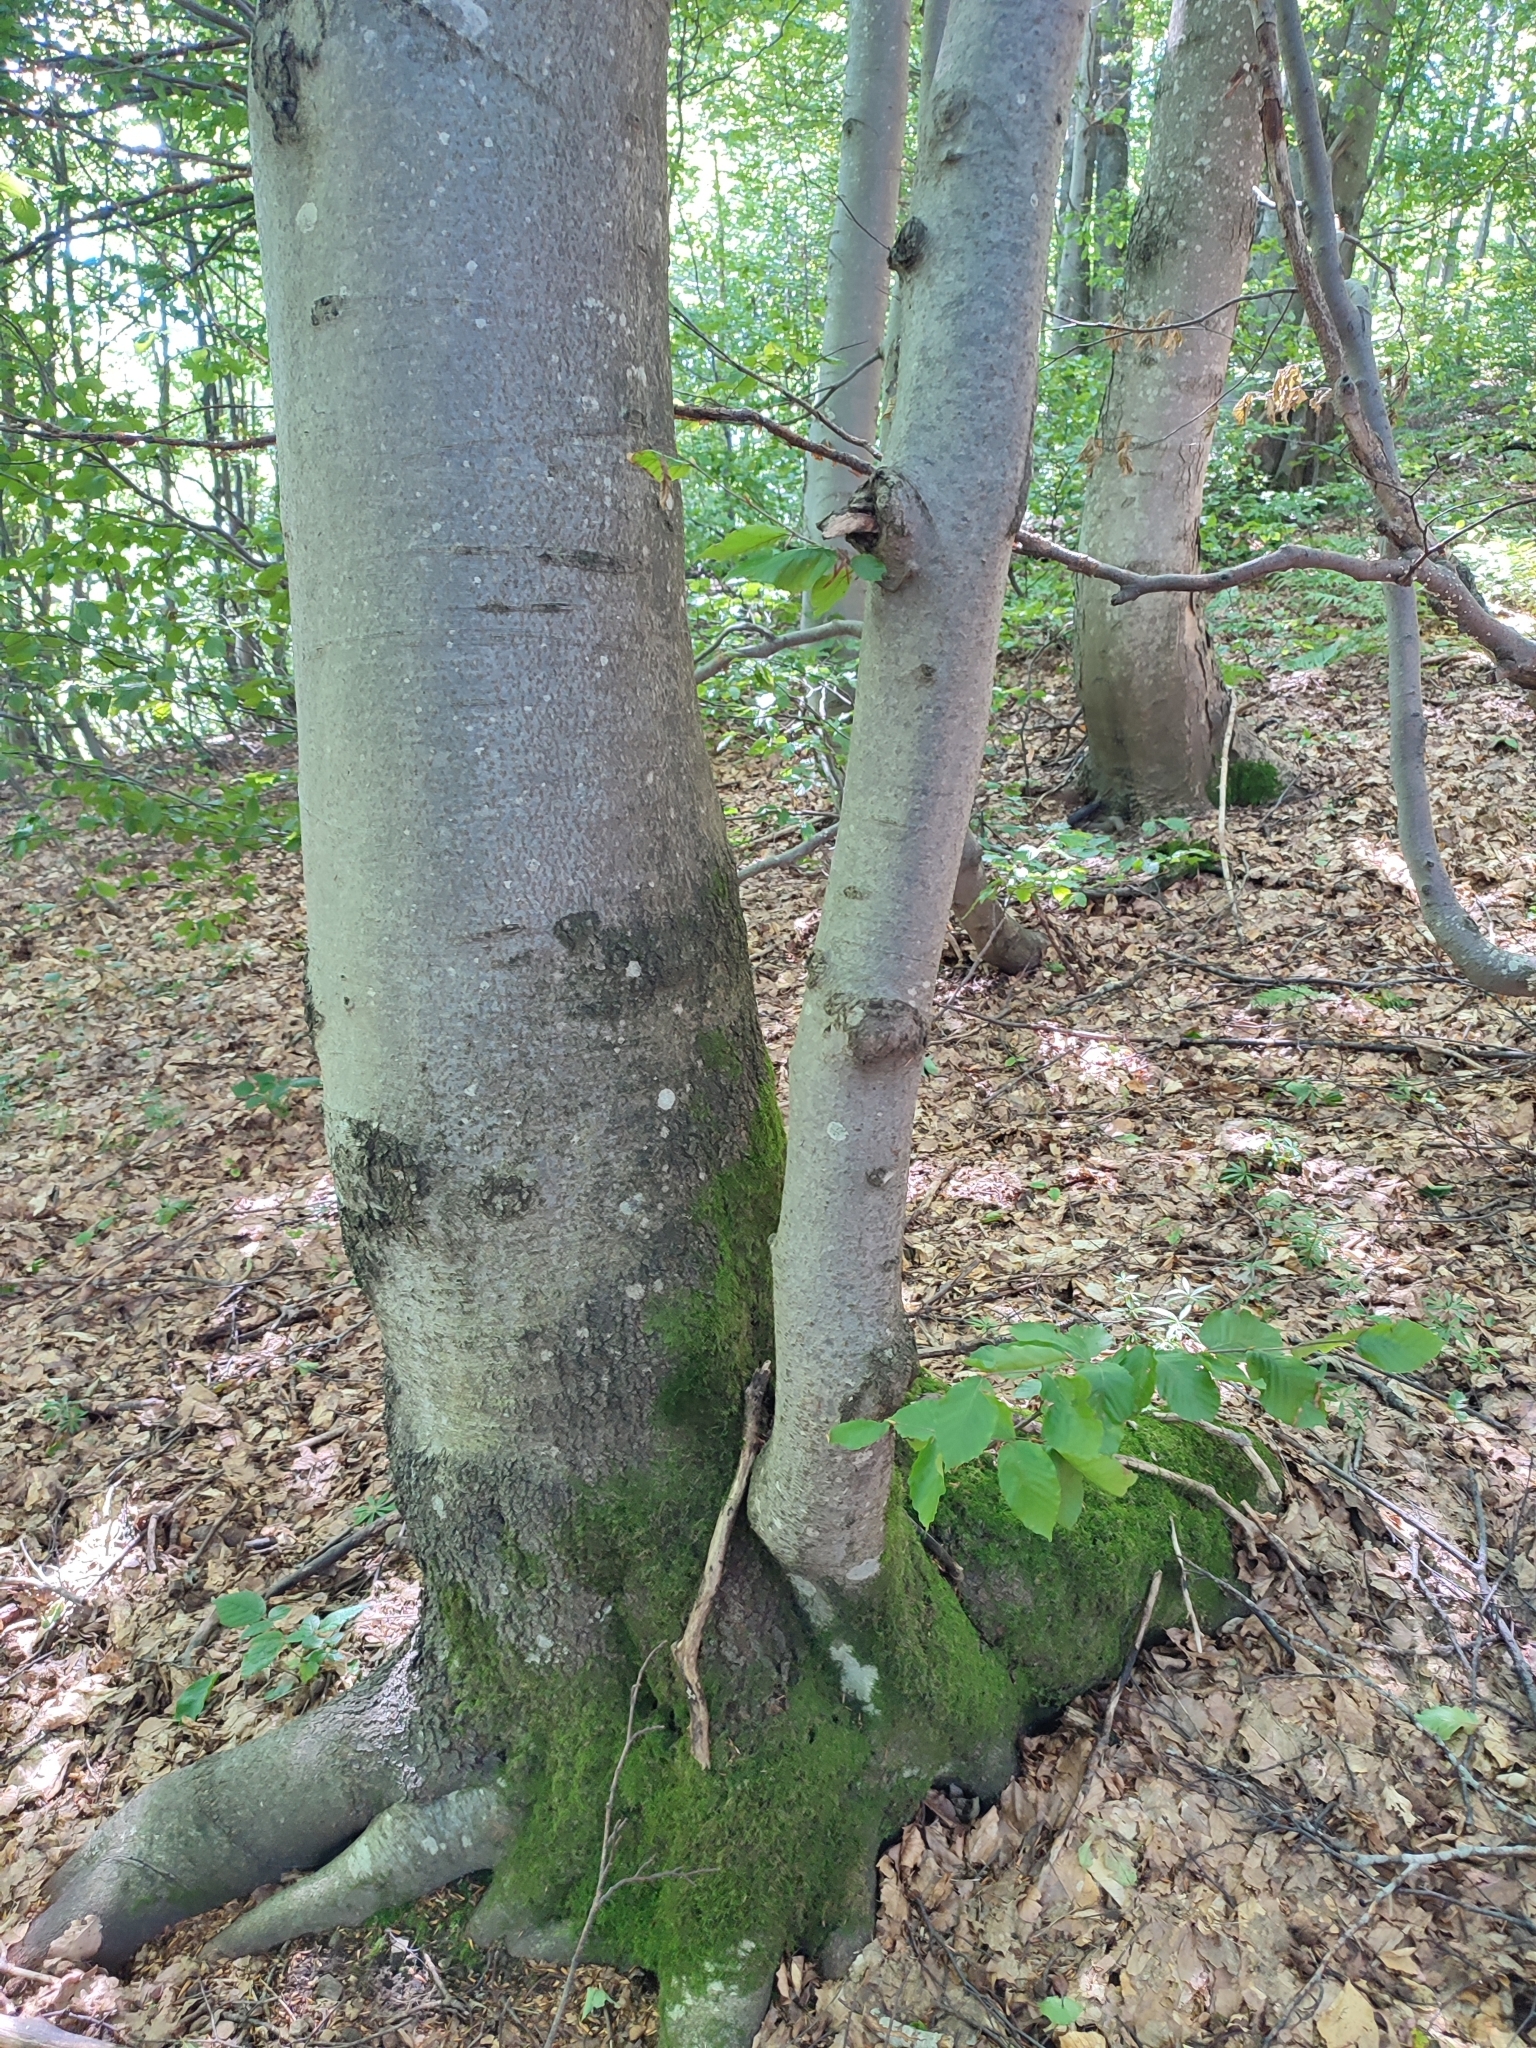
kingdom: Plantae
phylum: Tracheophyta
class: Magnoliopsida
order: Fagales
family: Fagaceae
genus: Fagus
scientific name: Fagus sylvatica
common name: Beech
